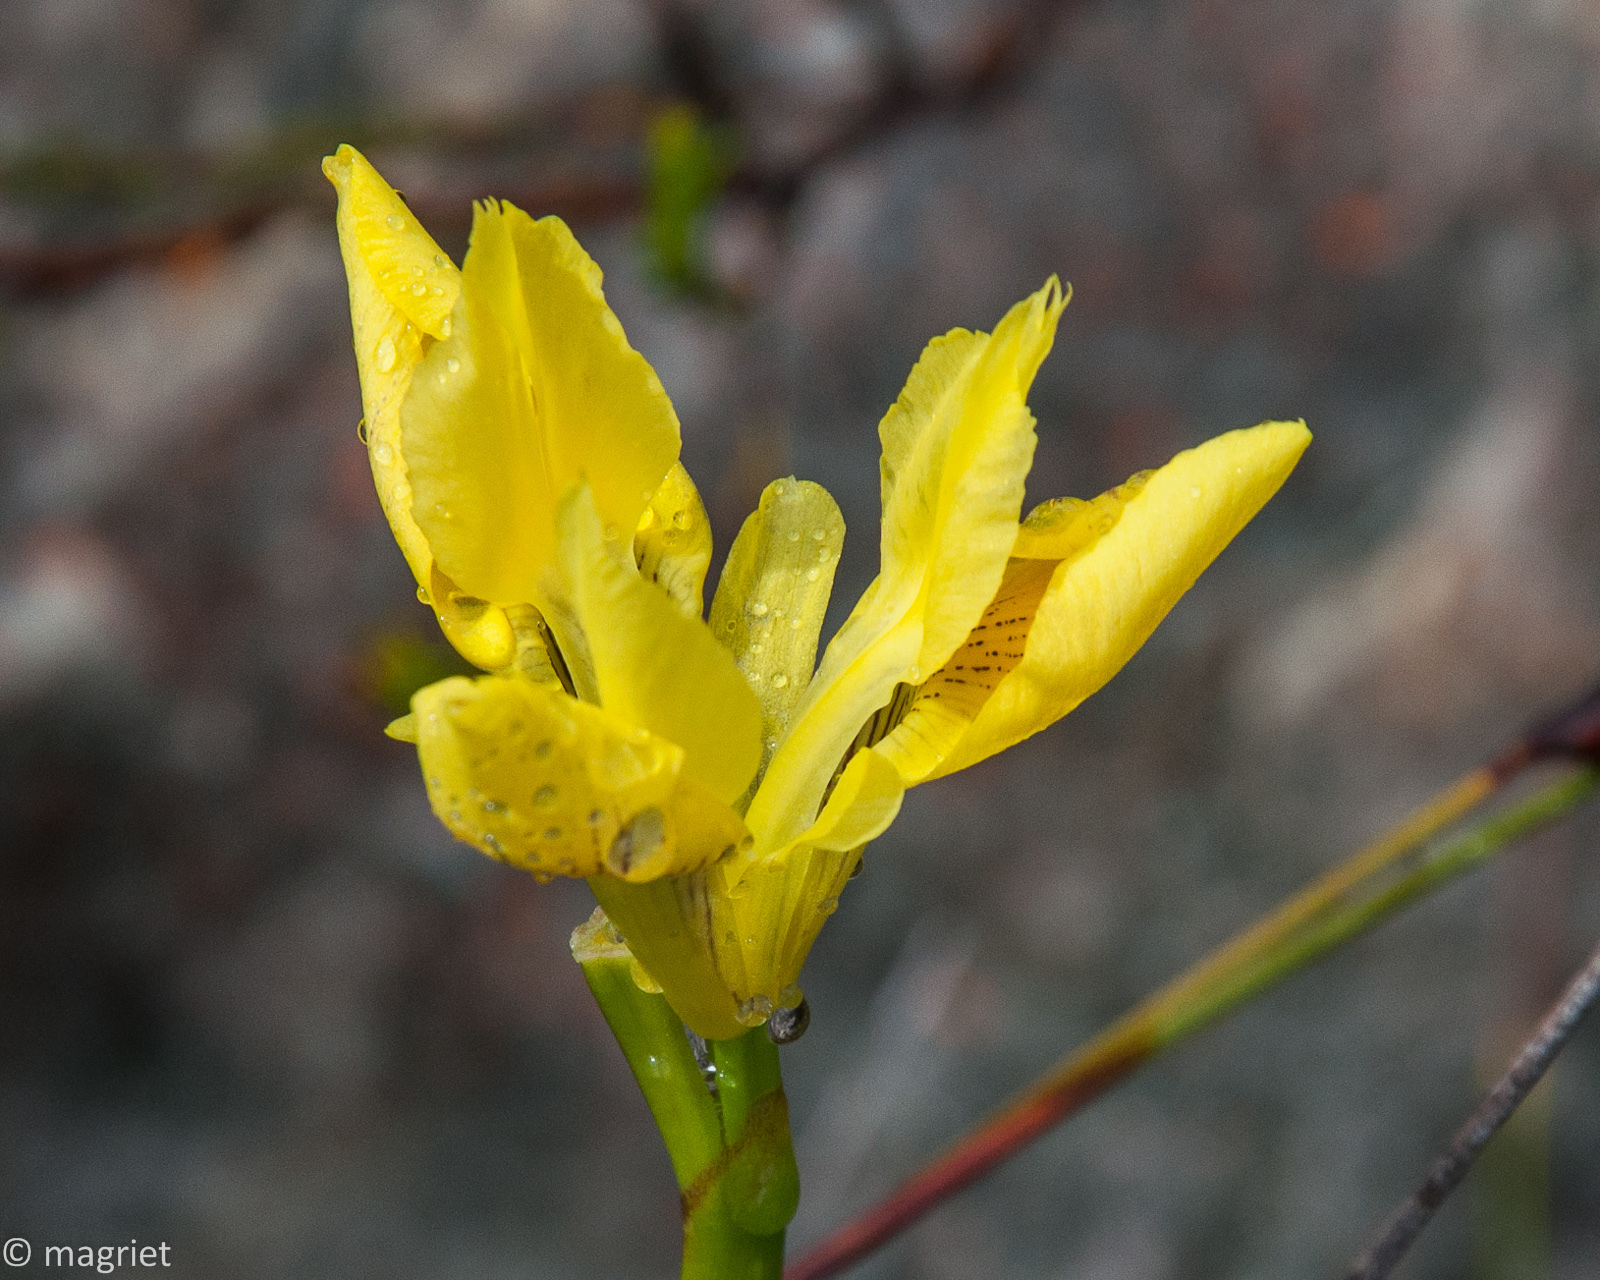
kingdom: Plantae
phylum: Tracheophyta
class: Liliopsida
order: Asparagales
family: Iridaceae
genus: Moraea
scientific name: Moraea neglecta
